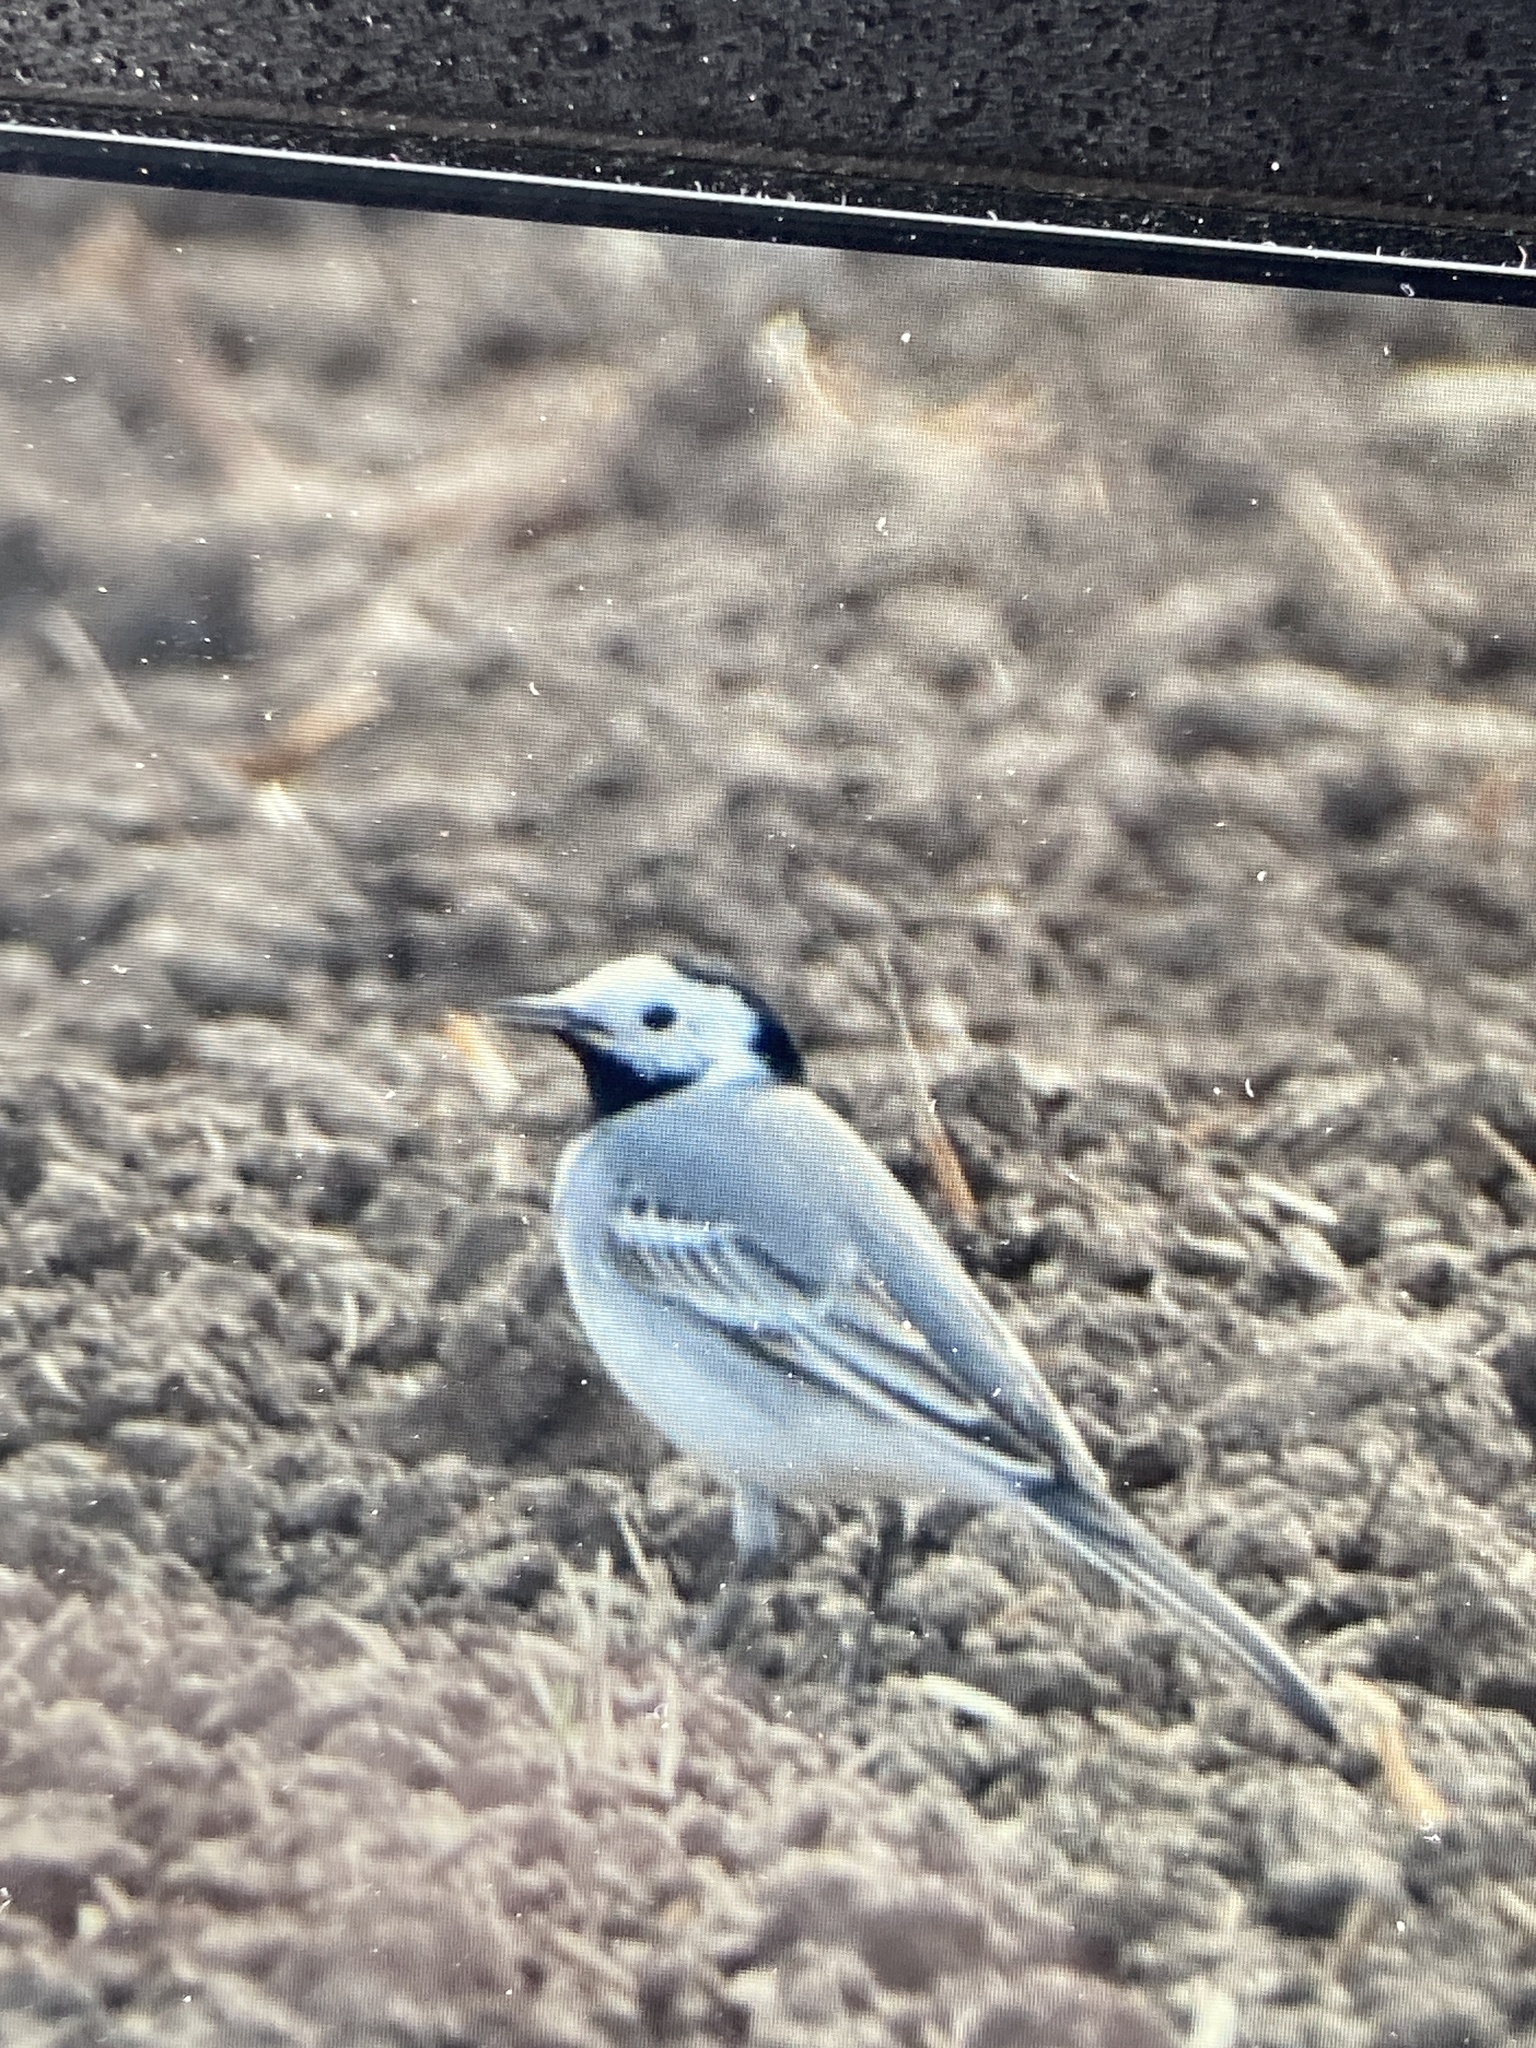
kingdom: Animalia
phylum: Chordata
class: Aves
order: Passeriformes
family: Motacillidae
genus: Motacilla
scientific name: Motacilla alba
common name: White wagtail
